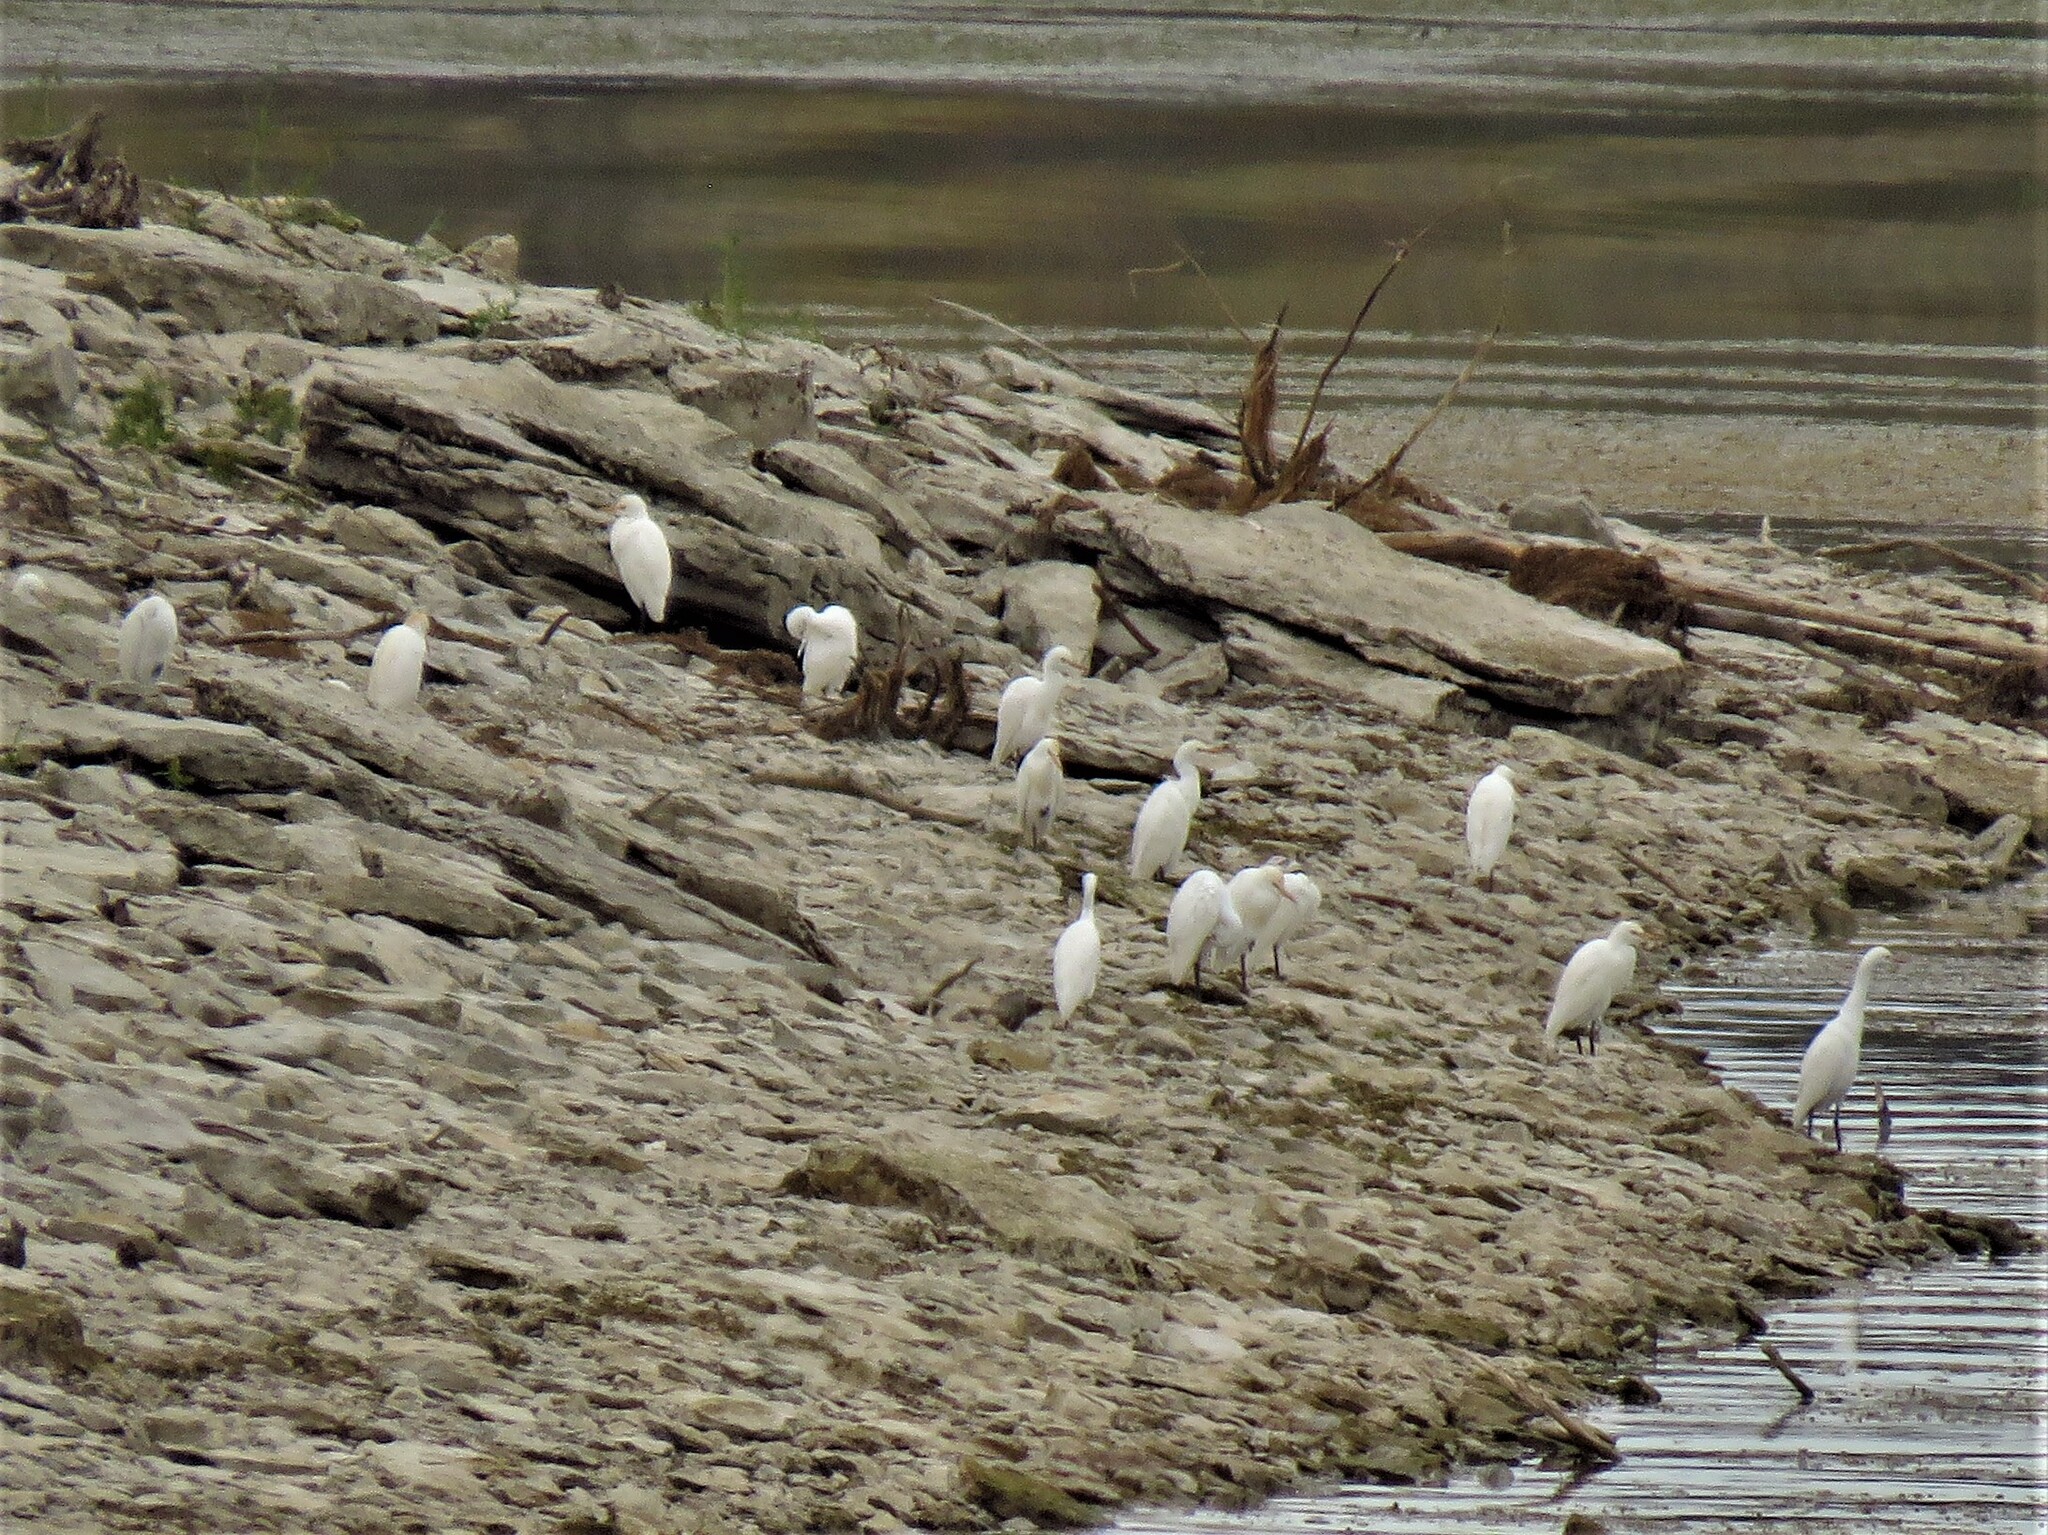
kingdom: Animalia
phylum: Chordata
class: Aves
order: Pelecaniformes
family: Ardeidae
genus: Bubulcus
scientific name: Bubulcus ibis
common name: Cattle egret
